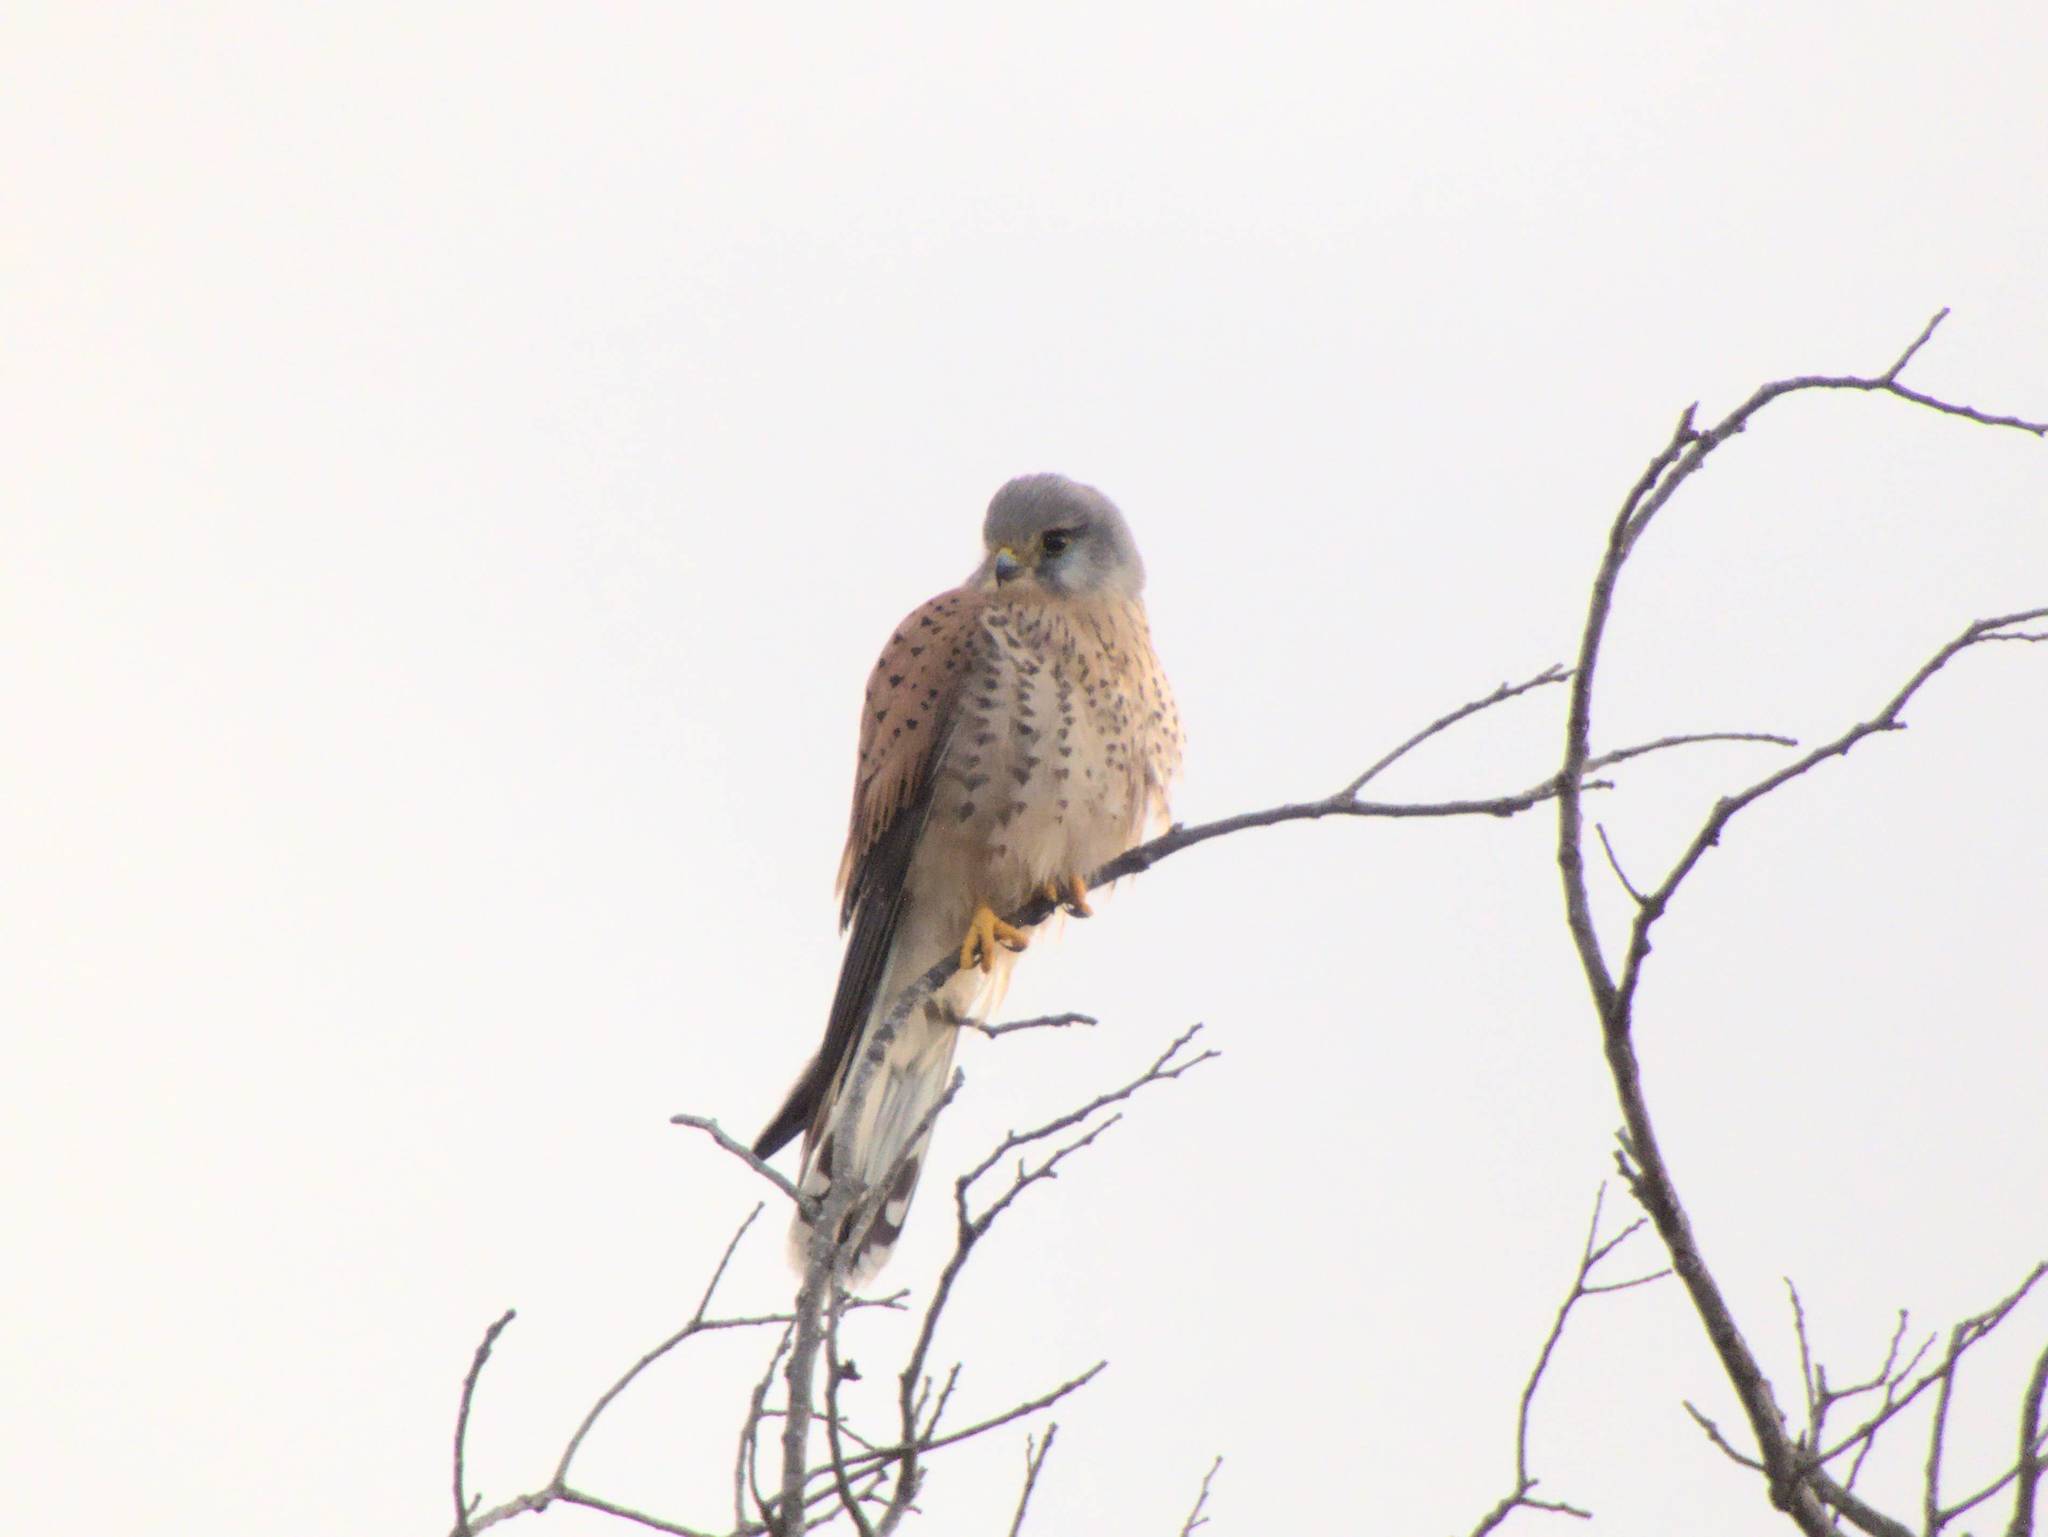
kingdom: Animalia
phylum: Chordata
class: Aves
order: Falconiformes
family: Falconidae
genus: Falco
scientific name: Falco tinnunculus
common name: Common kestrel
